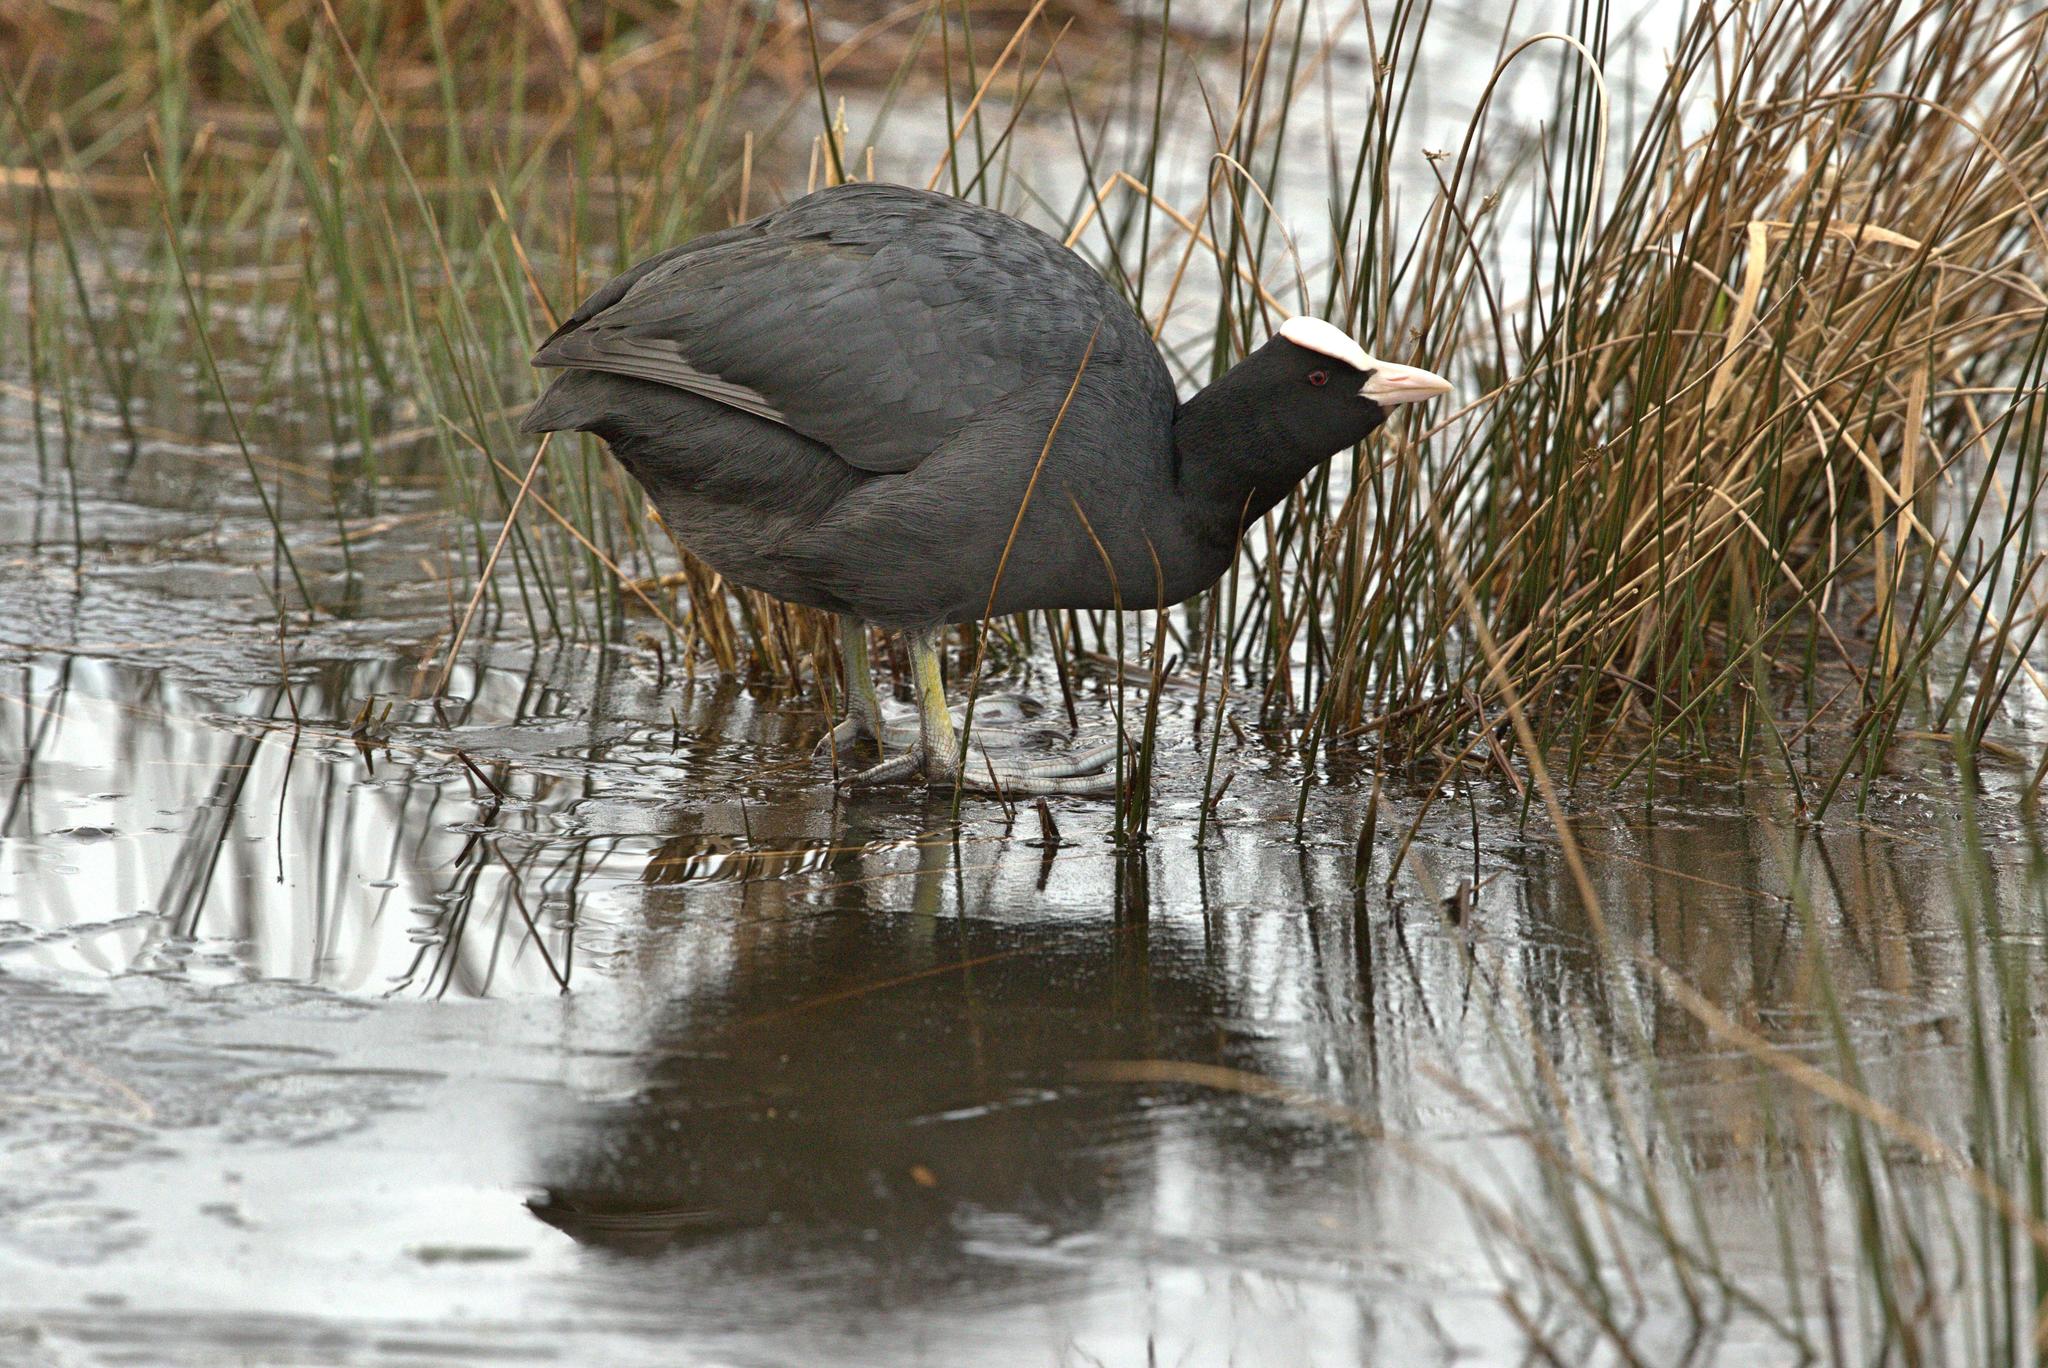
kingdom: Animalia
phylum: Chordata
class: Aves
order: Gruiformes
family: Rallidae
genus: Fulica
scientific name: Fulica atra
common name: Eurasian coot
